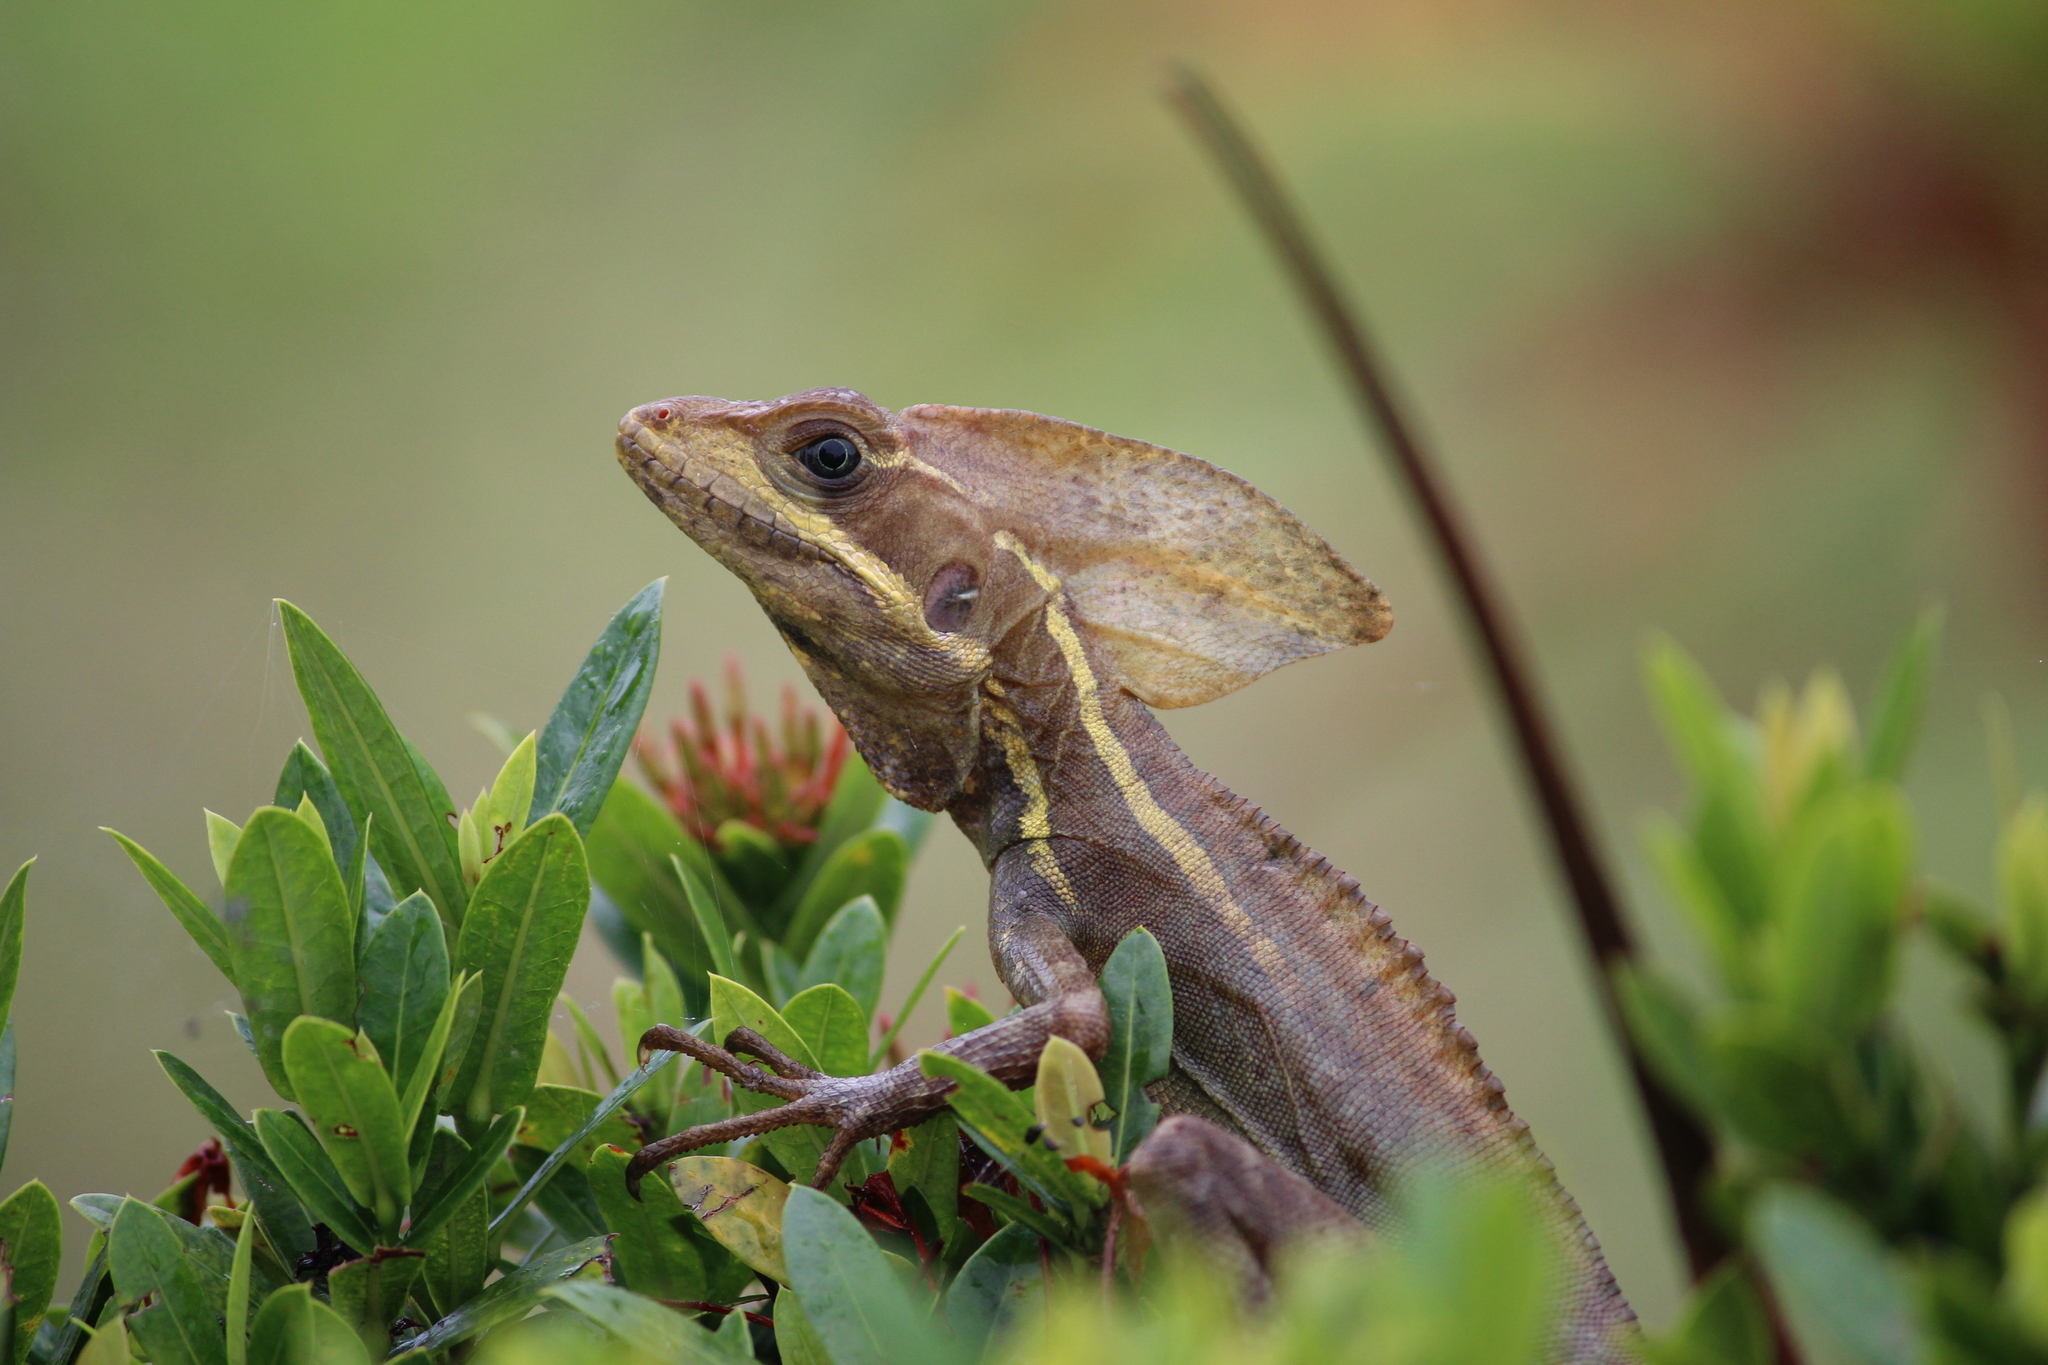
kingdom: Animalia
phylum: Chordata
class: Squamata
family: Corytophanidae
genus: Basiliscus
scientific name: Basiliscus vittatus
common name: Brown basilisk
